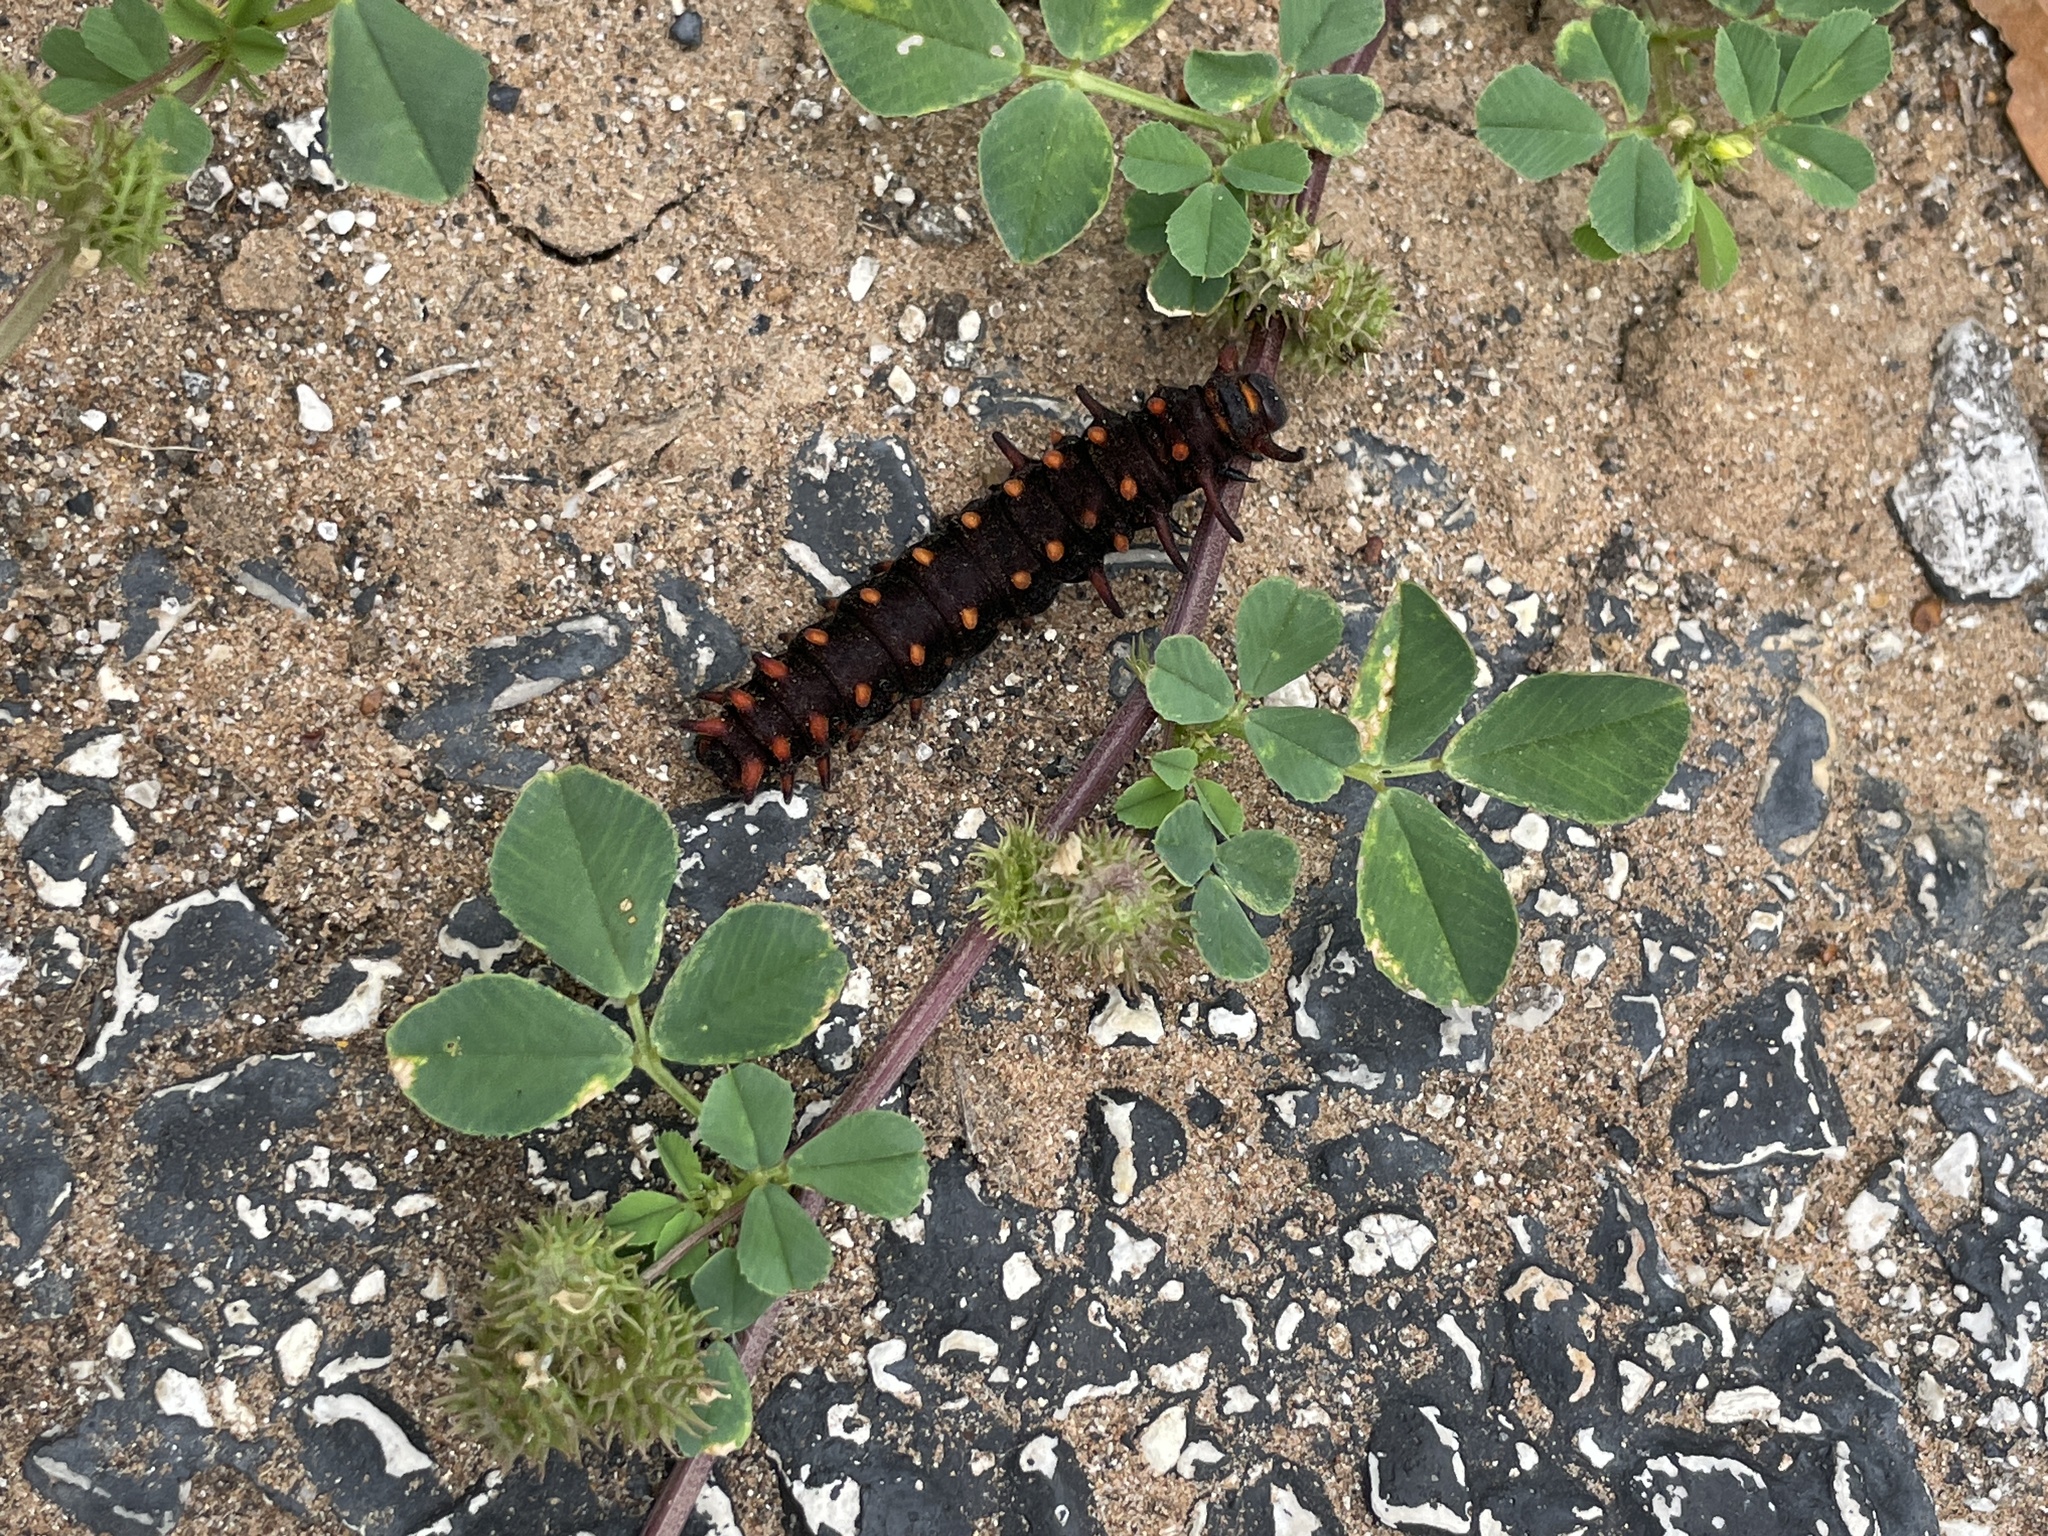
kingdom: Animalia
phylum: Arthropoda
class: Insecta
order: Lepidoptera
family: Papilionidae
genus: Battus
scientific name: Battus philenor
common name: Pipevine swallowtail
